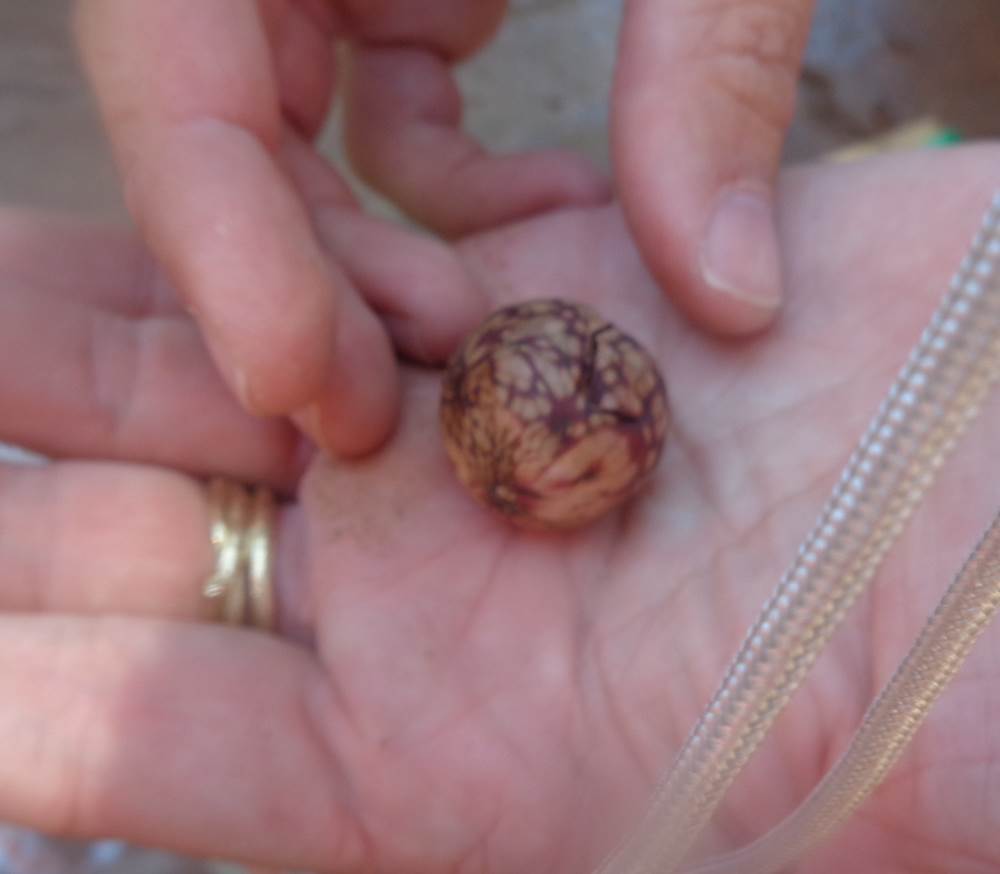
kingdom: Animalia
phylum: Arthropoda
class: Insecta
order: Hymenoptera
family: Cynipidae
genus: Amphibolips
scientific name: Amphibolips
